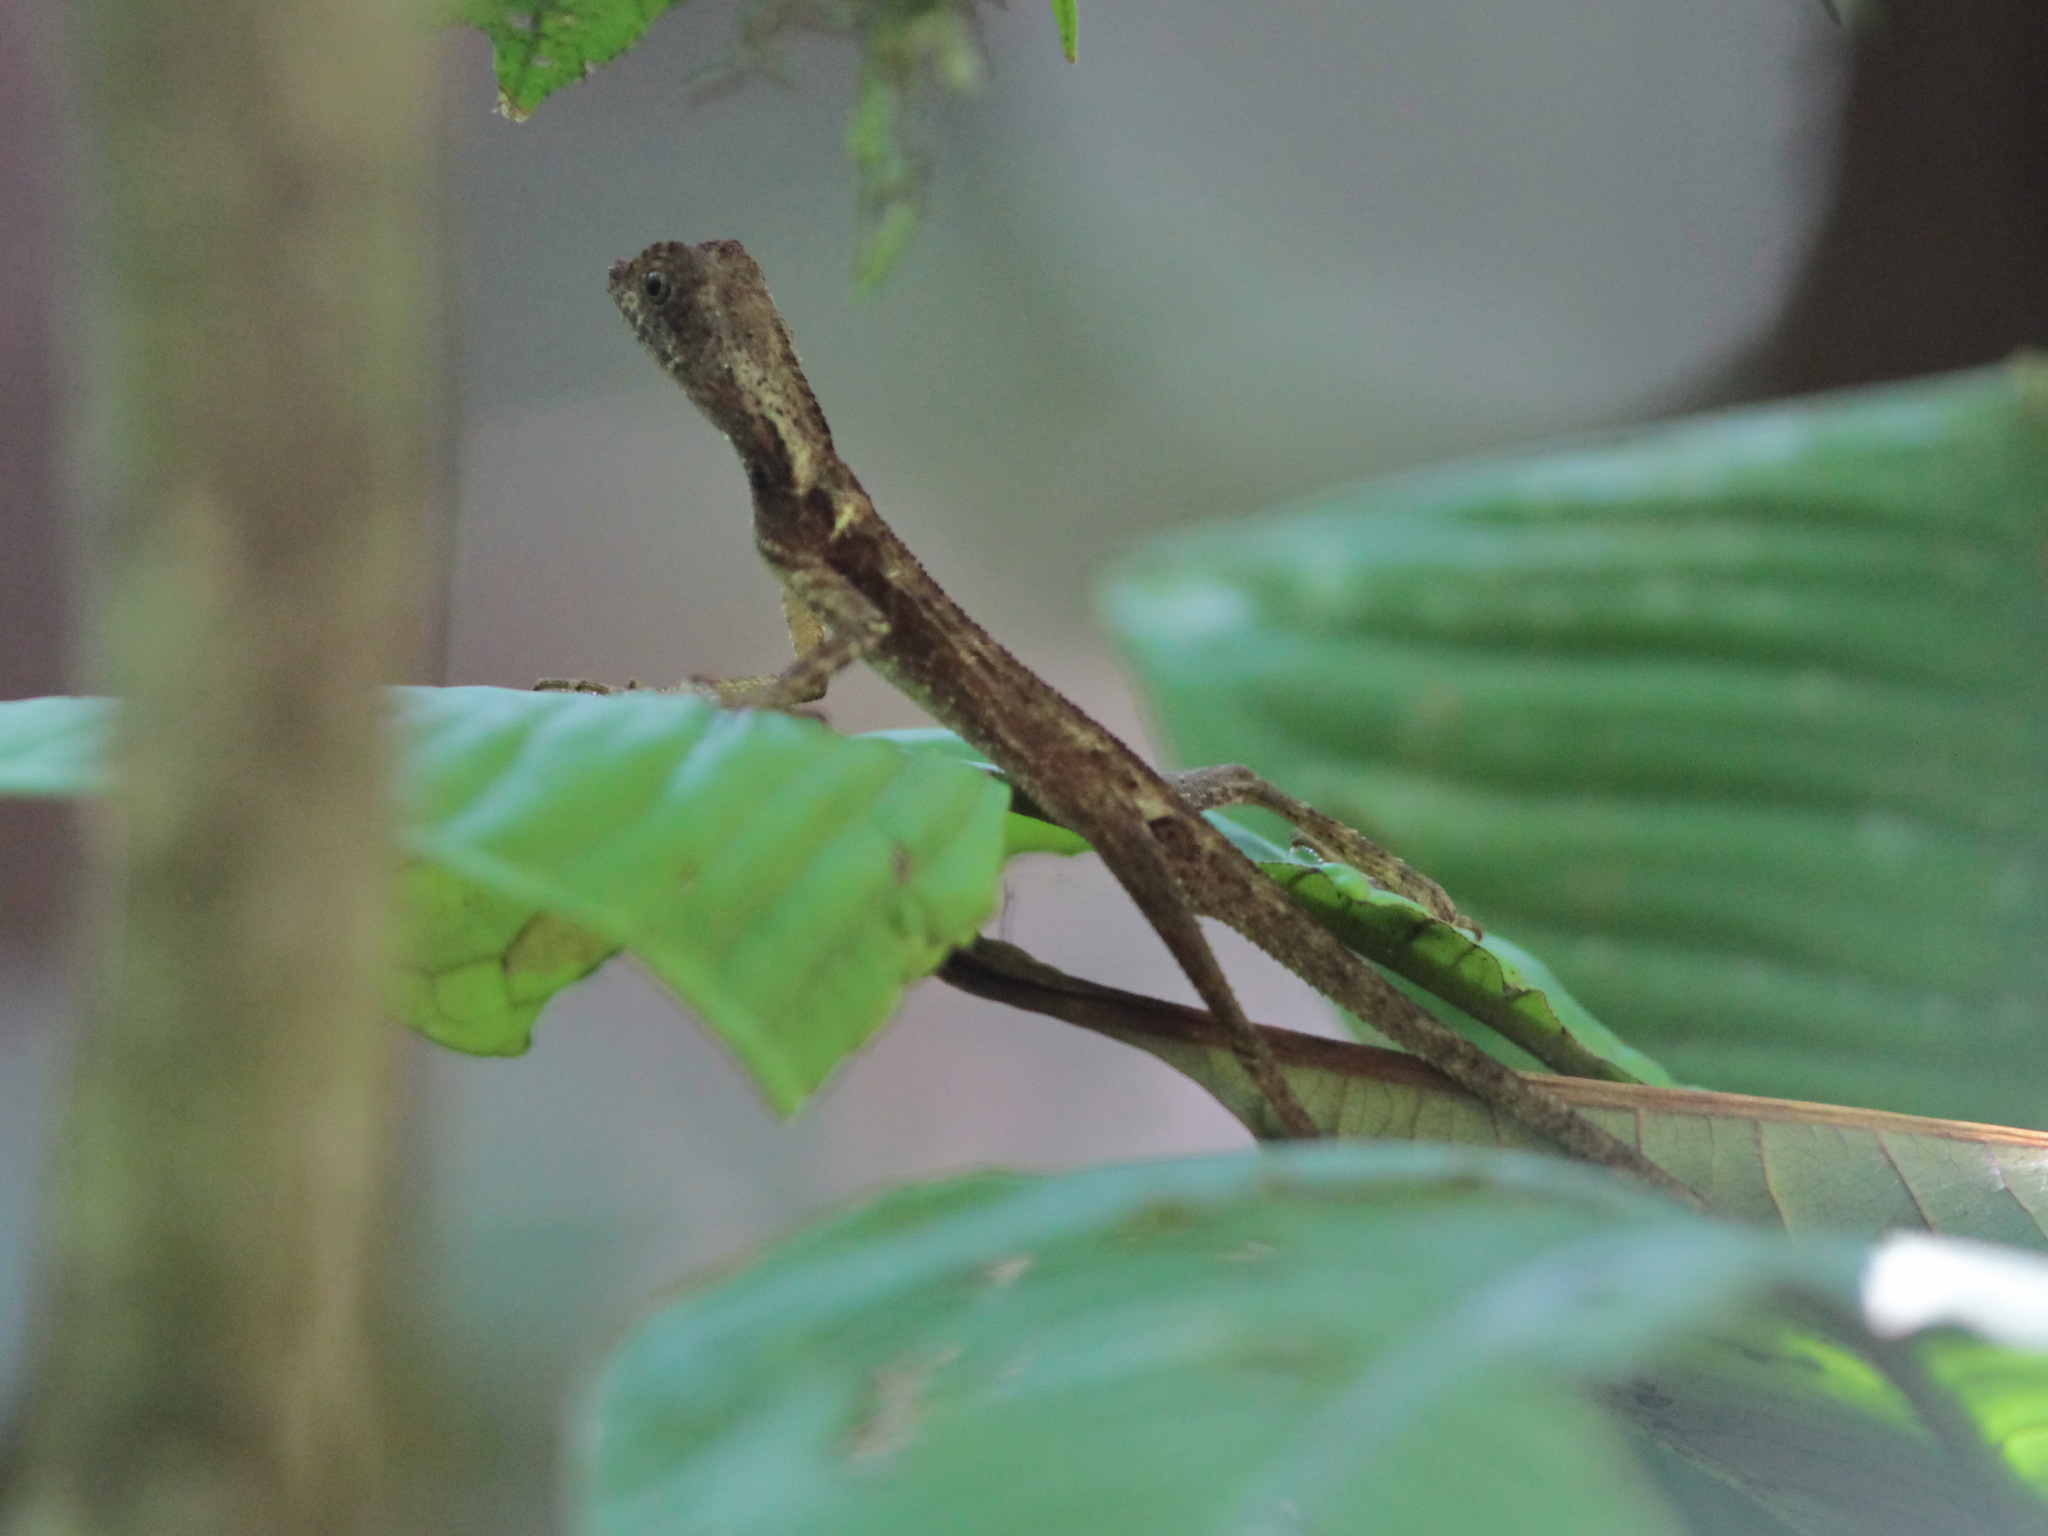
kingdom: Animalia
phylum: Chordata
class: Squamata
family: Agamidae
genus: Aphaniotis
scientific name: Aphaniotis fusca
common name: Dusky earless agama
